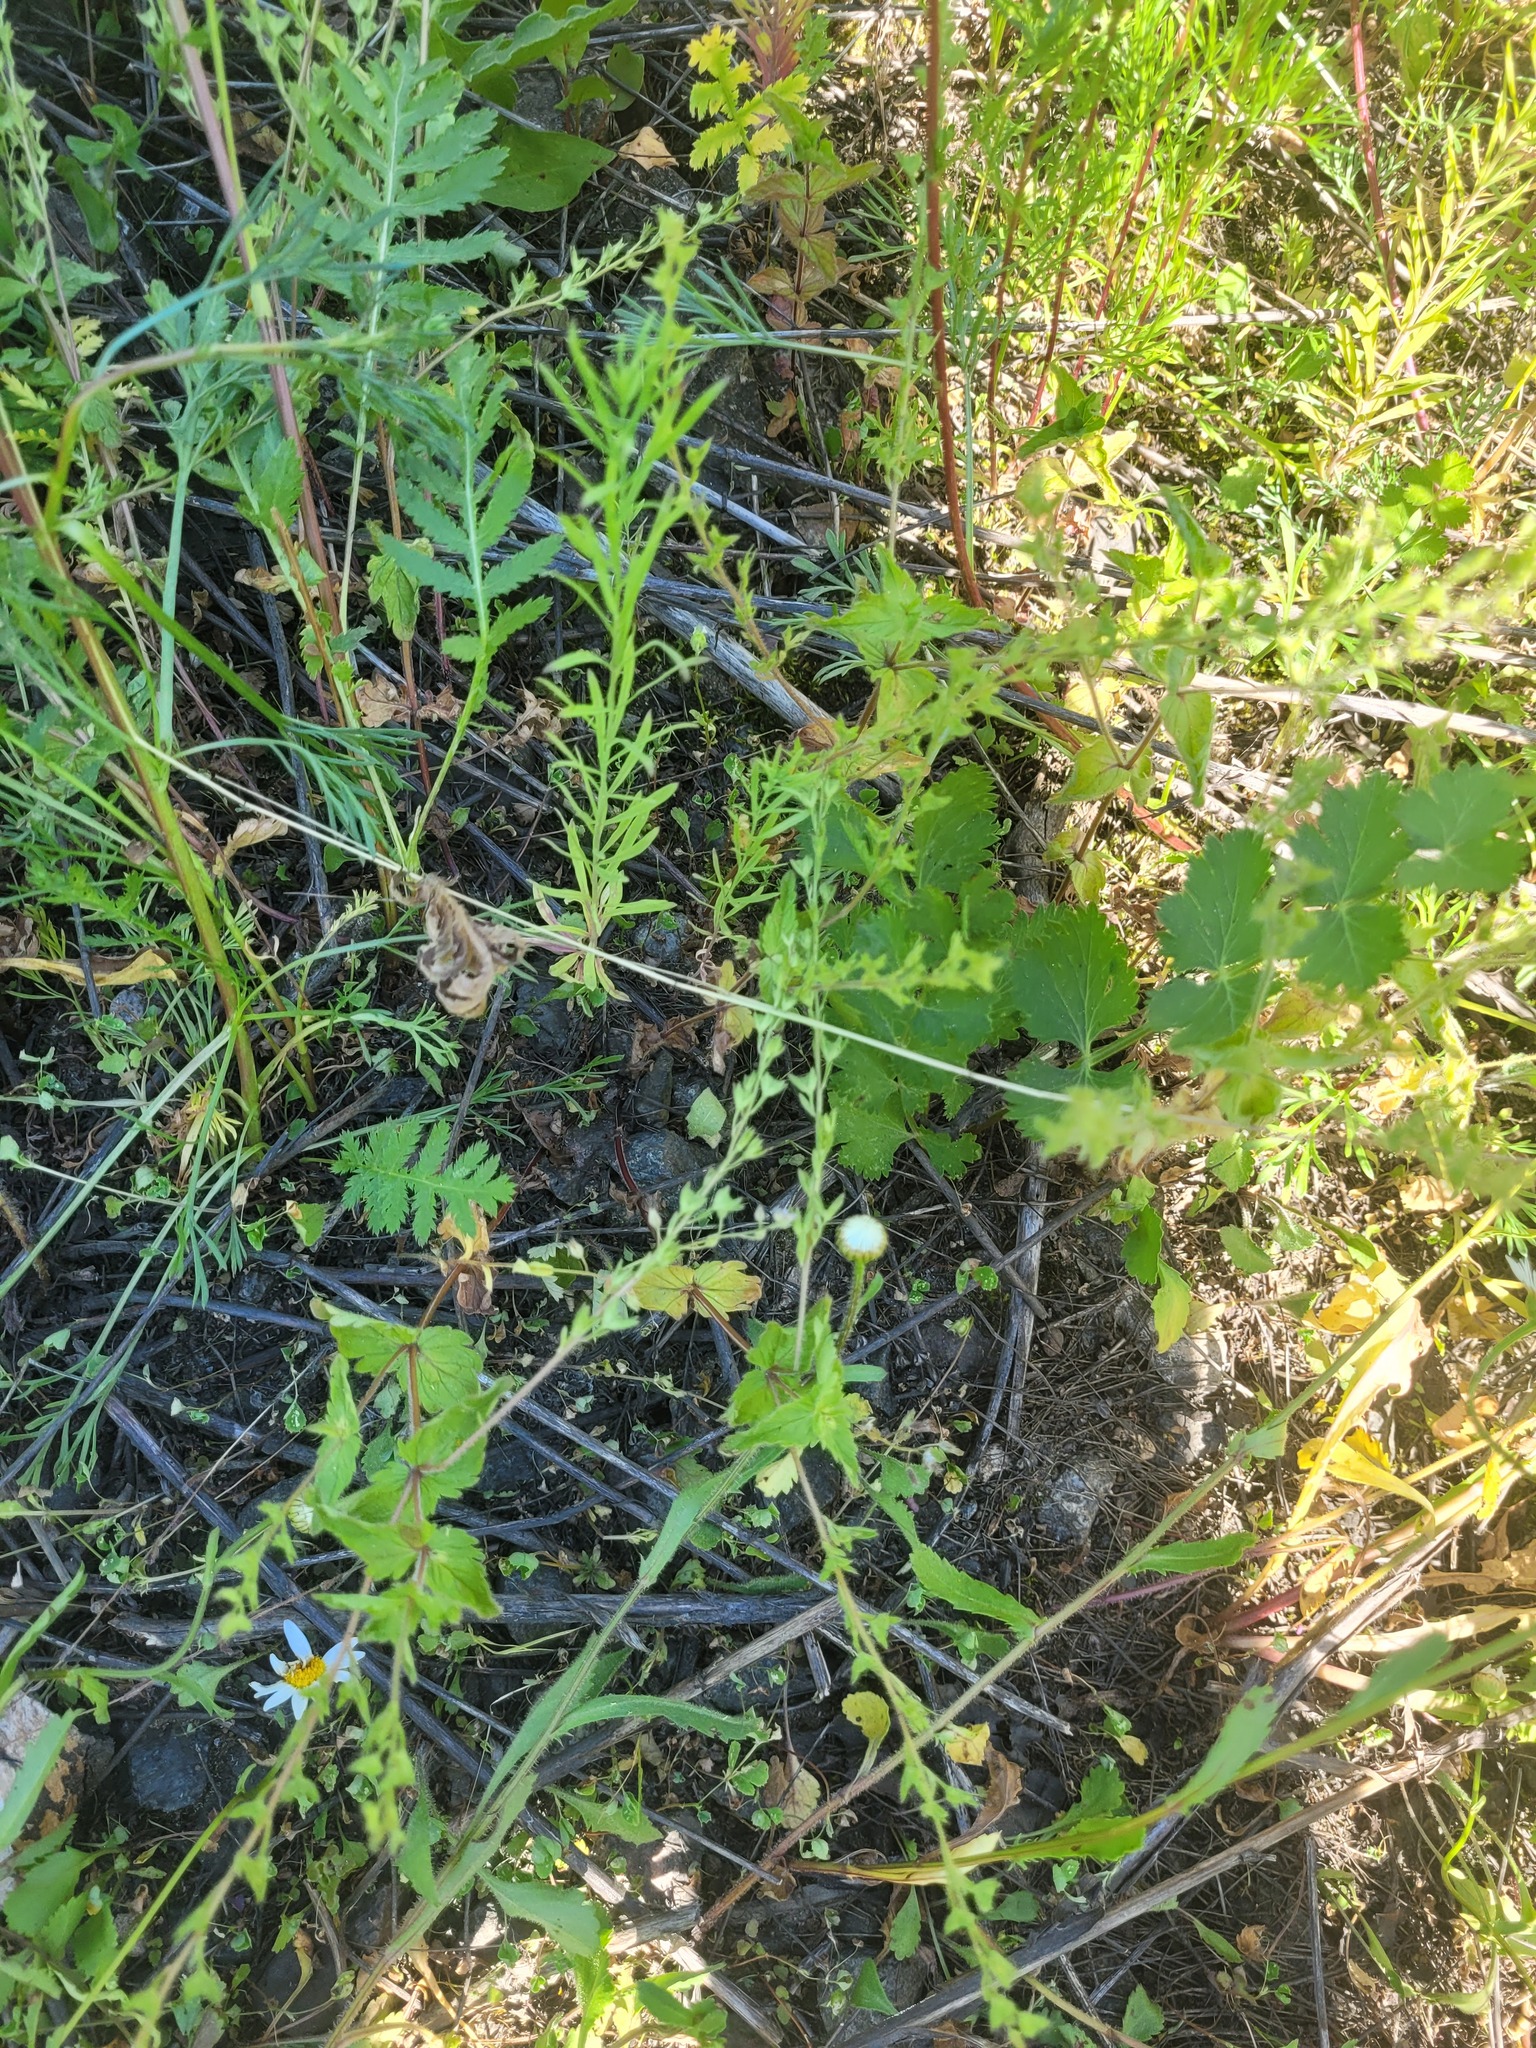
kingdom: Plantae
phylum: Tracheophyta
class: Magnoliopsida
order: Lamiales
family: Plantaginaceae
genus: Veronica
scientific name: Veronica chamaedrys
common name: Germander speedwell
